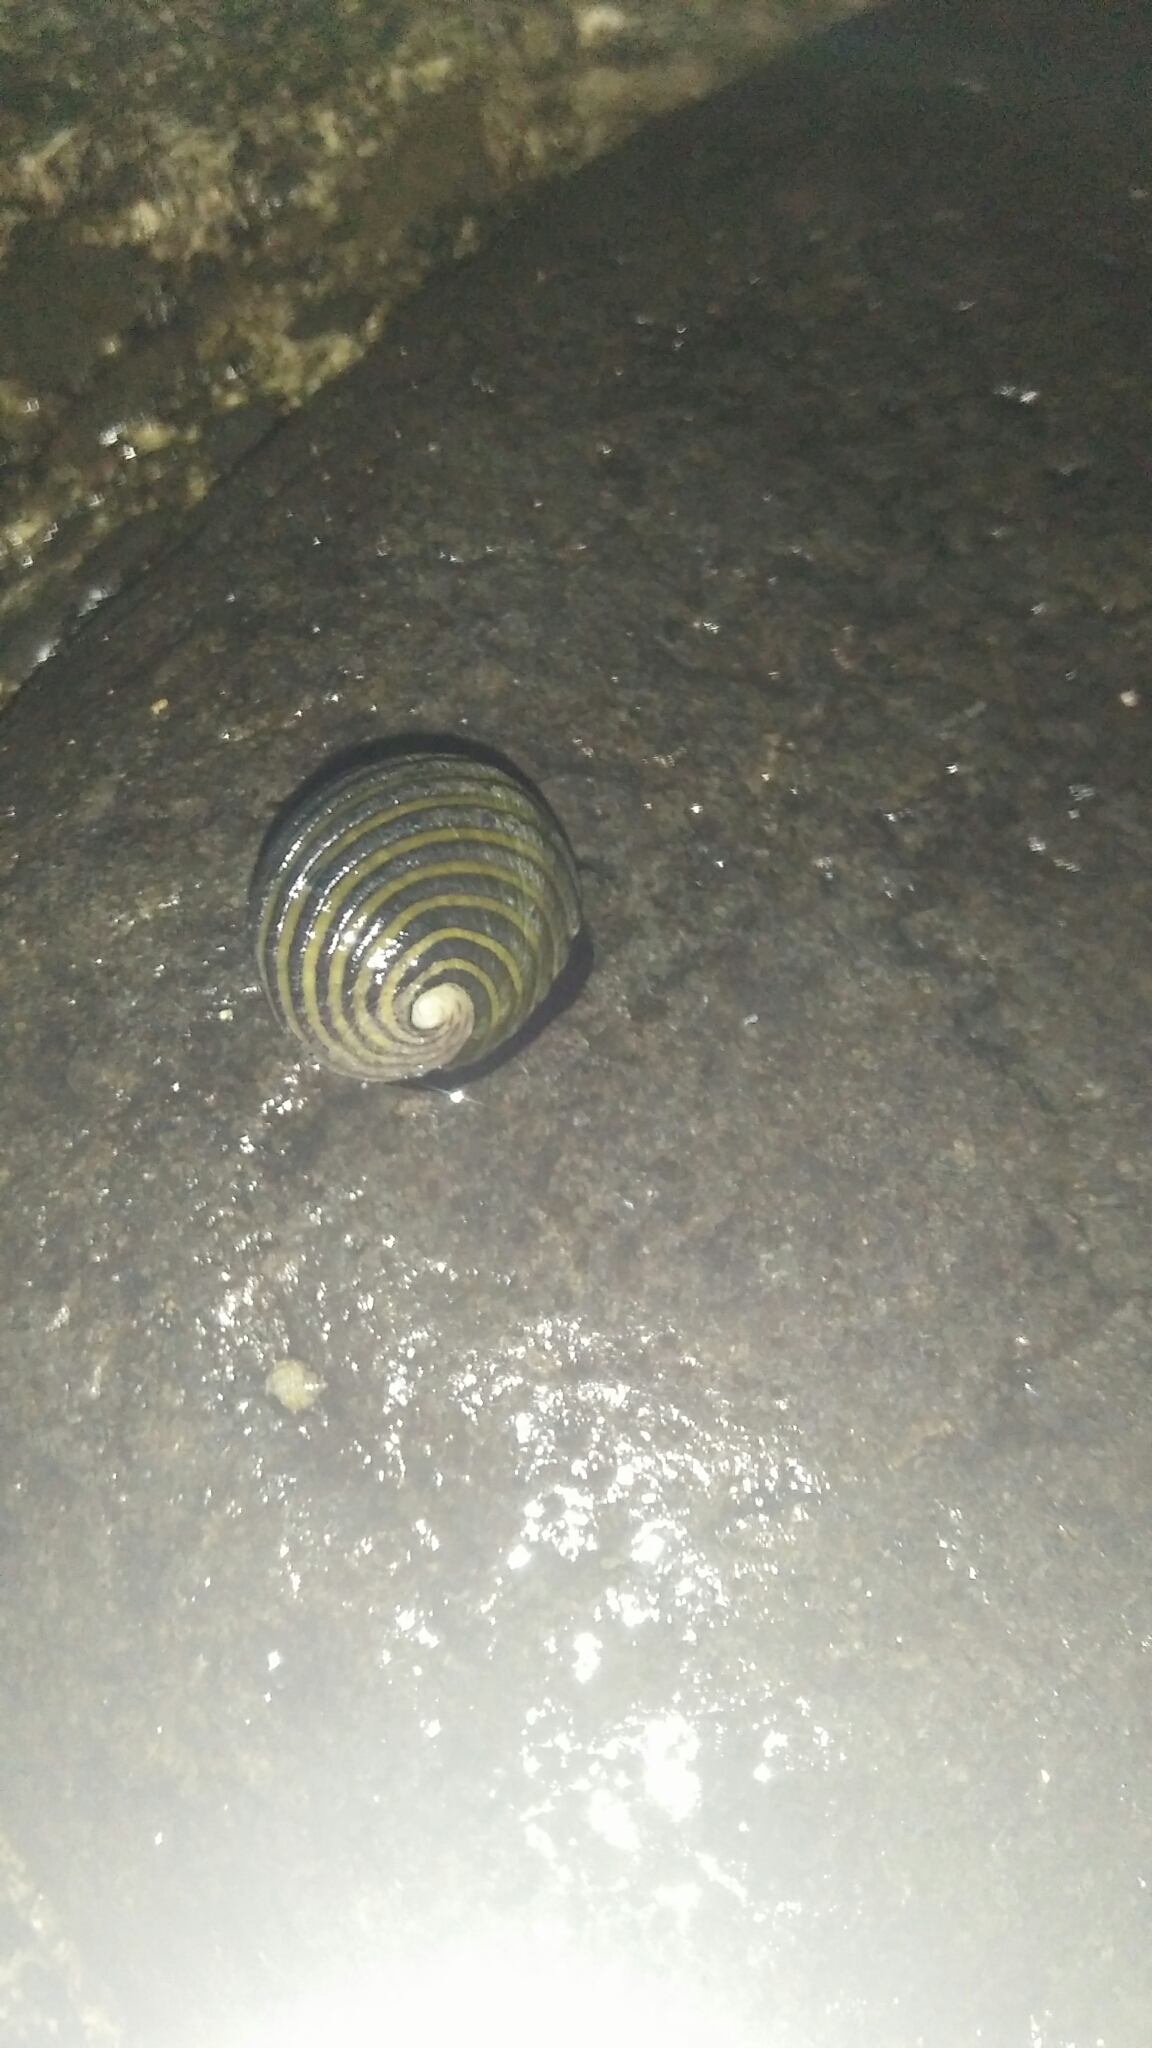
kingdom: Animalia
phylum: Mollusca
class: Gastropoda
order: Cycloneritida
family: Neritidae
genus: Nerita
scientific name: Nerita costata
